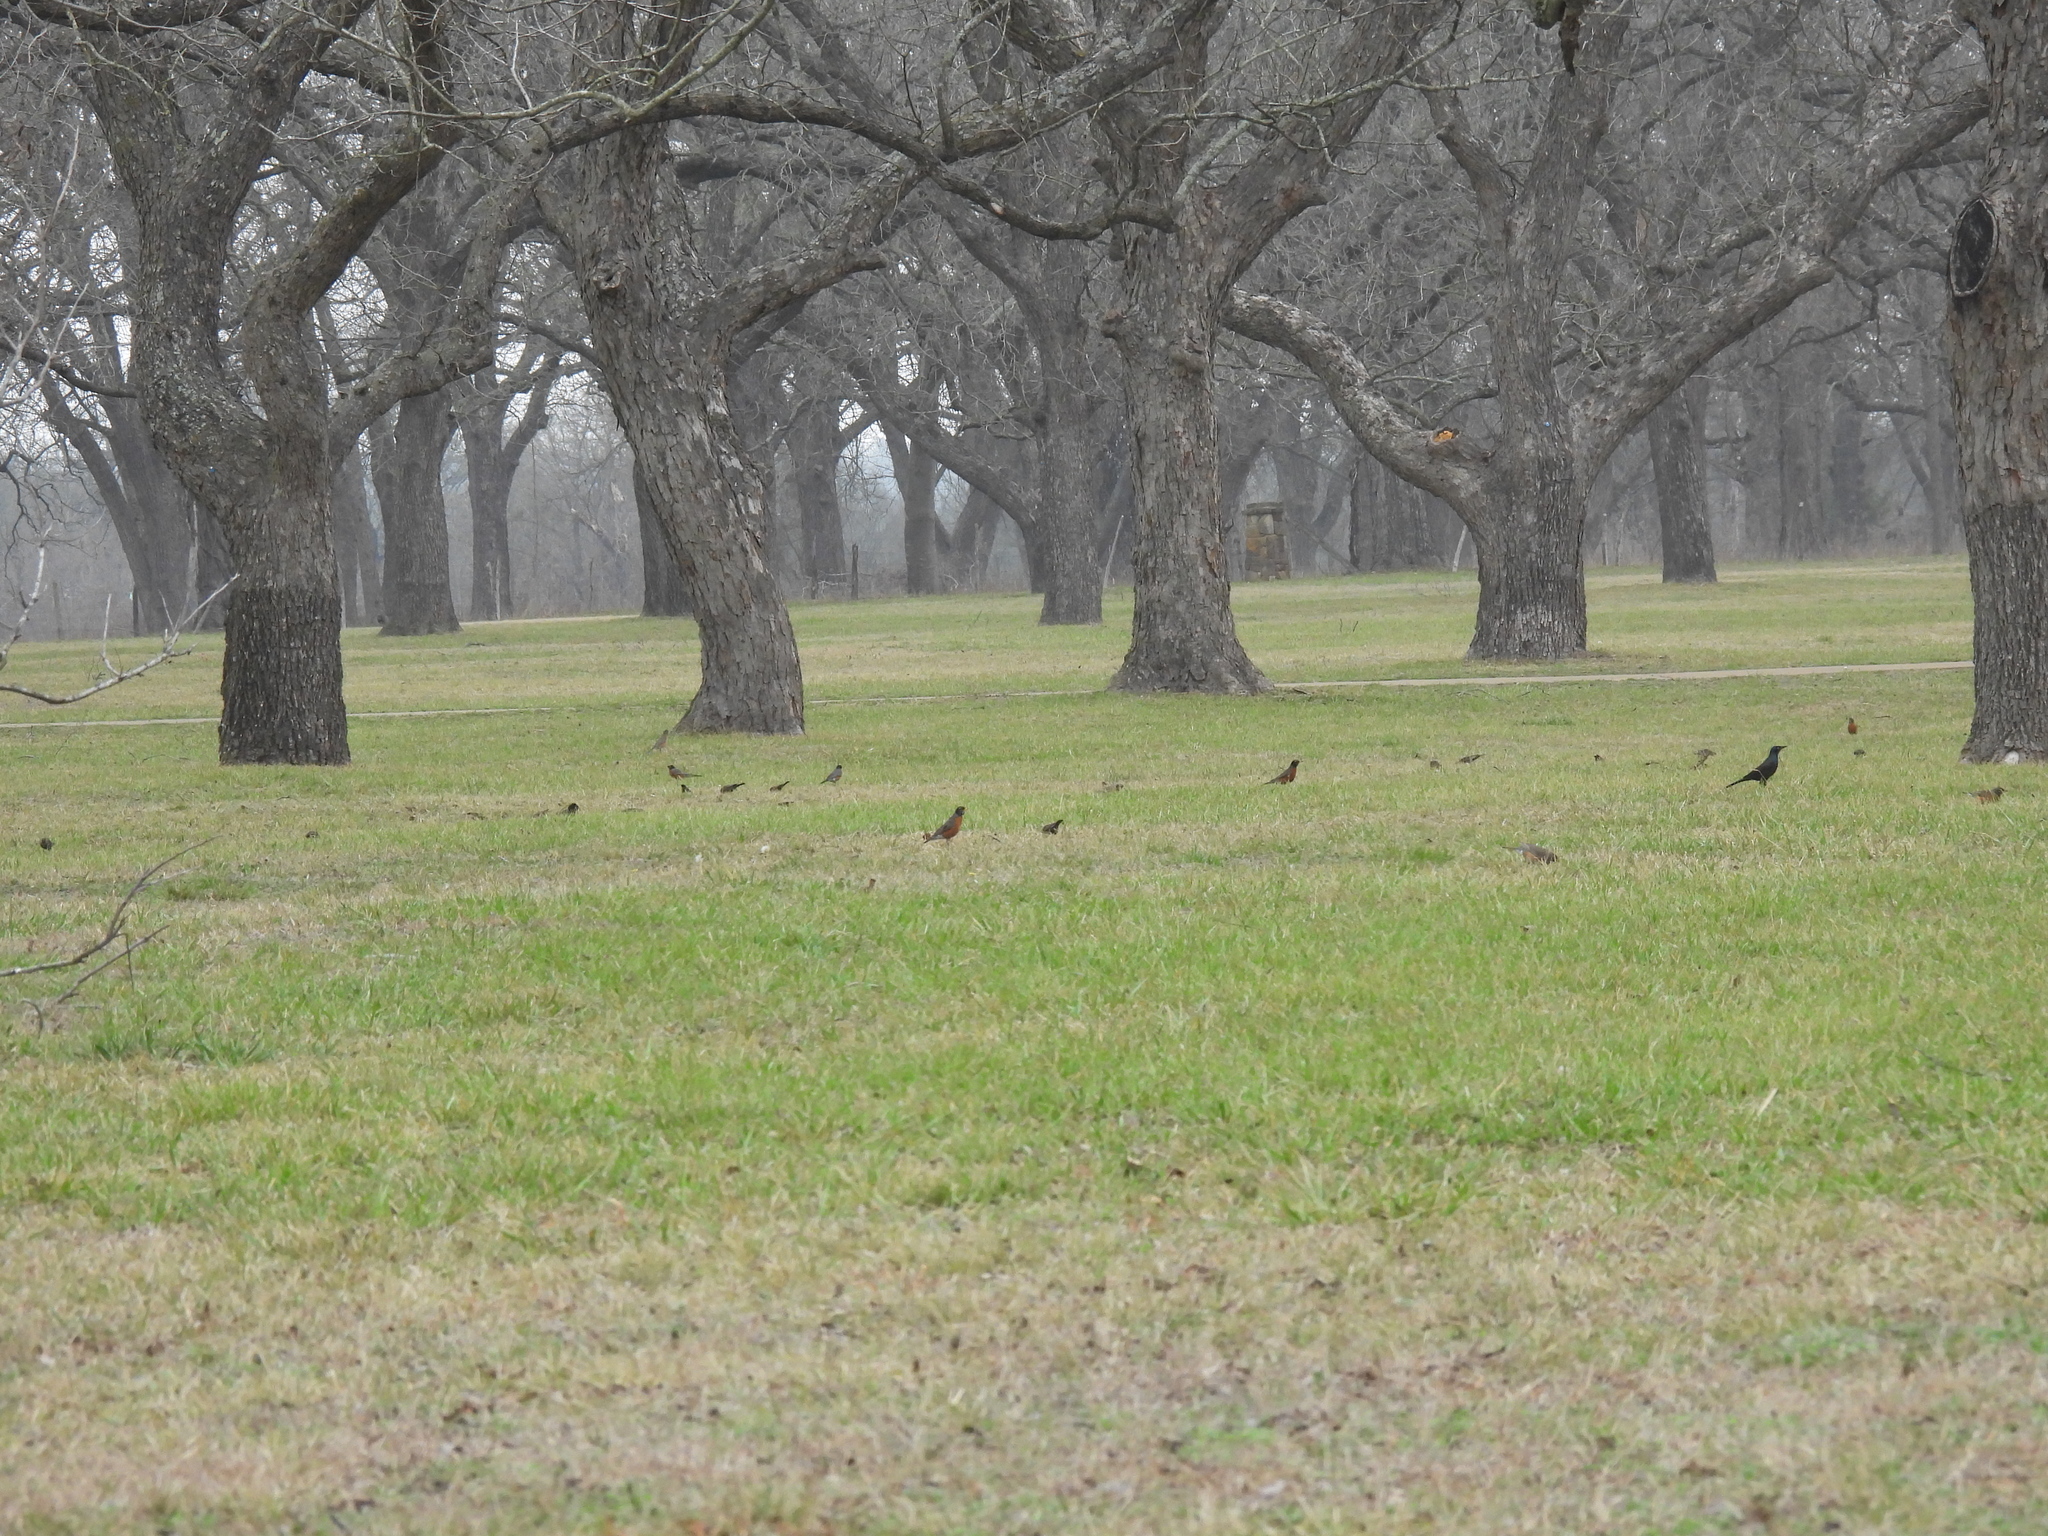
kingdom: Animalia
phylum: Chordata
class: Aves
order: Passeriformes
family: Turdidae
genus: Turdus
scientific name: Turdus migratorius
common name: American robin
